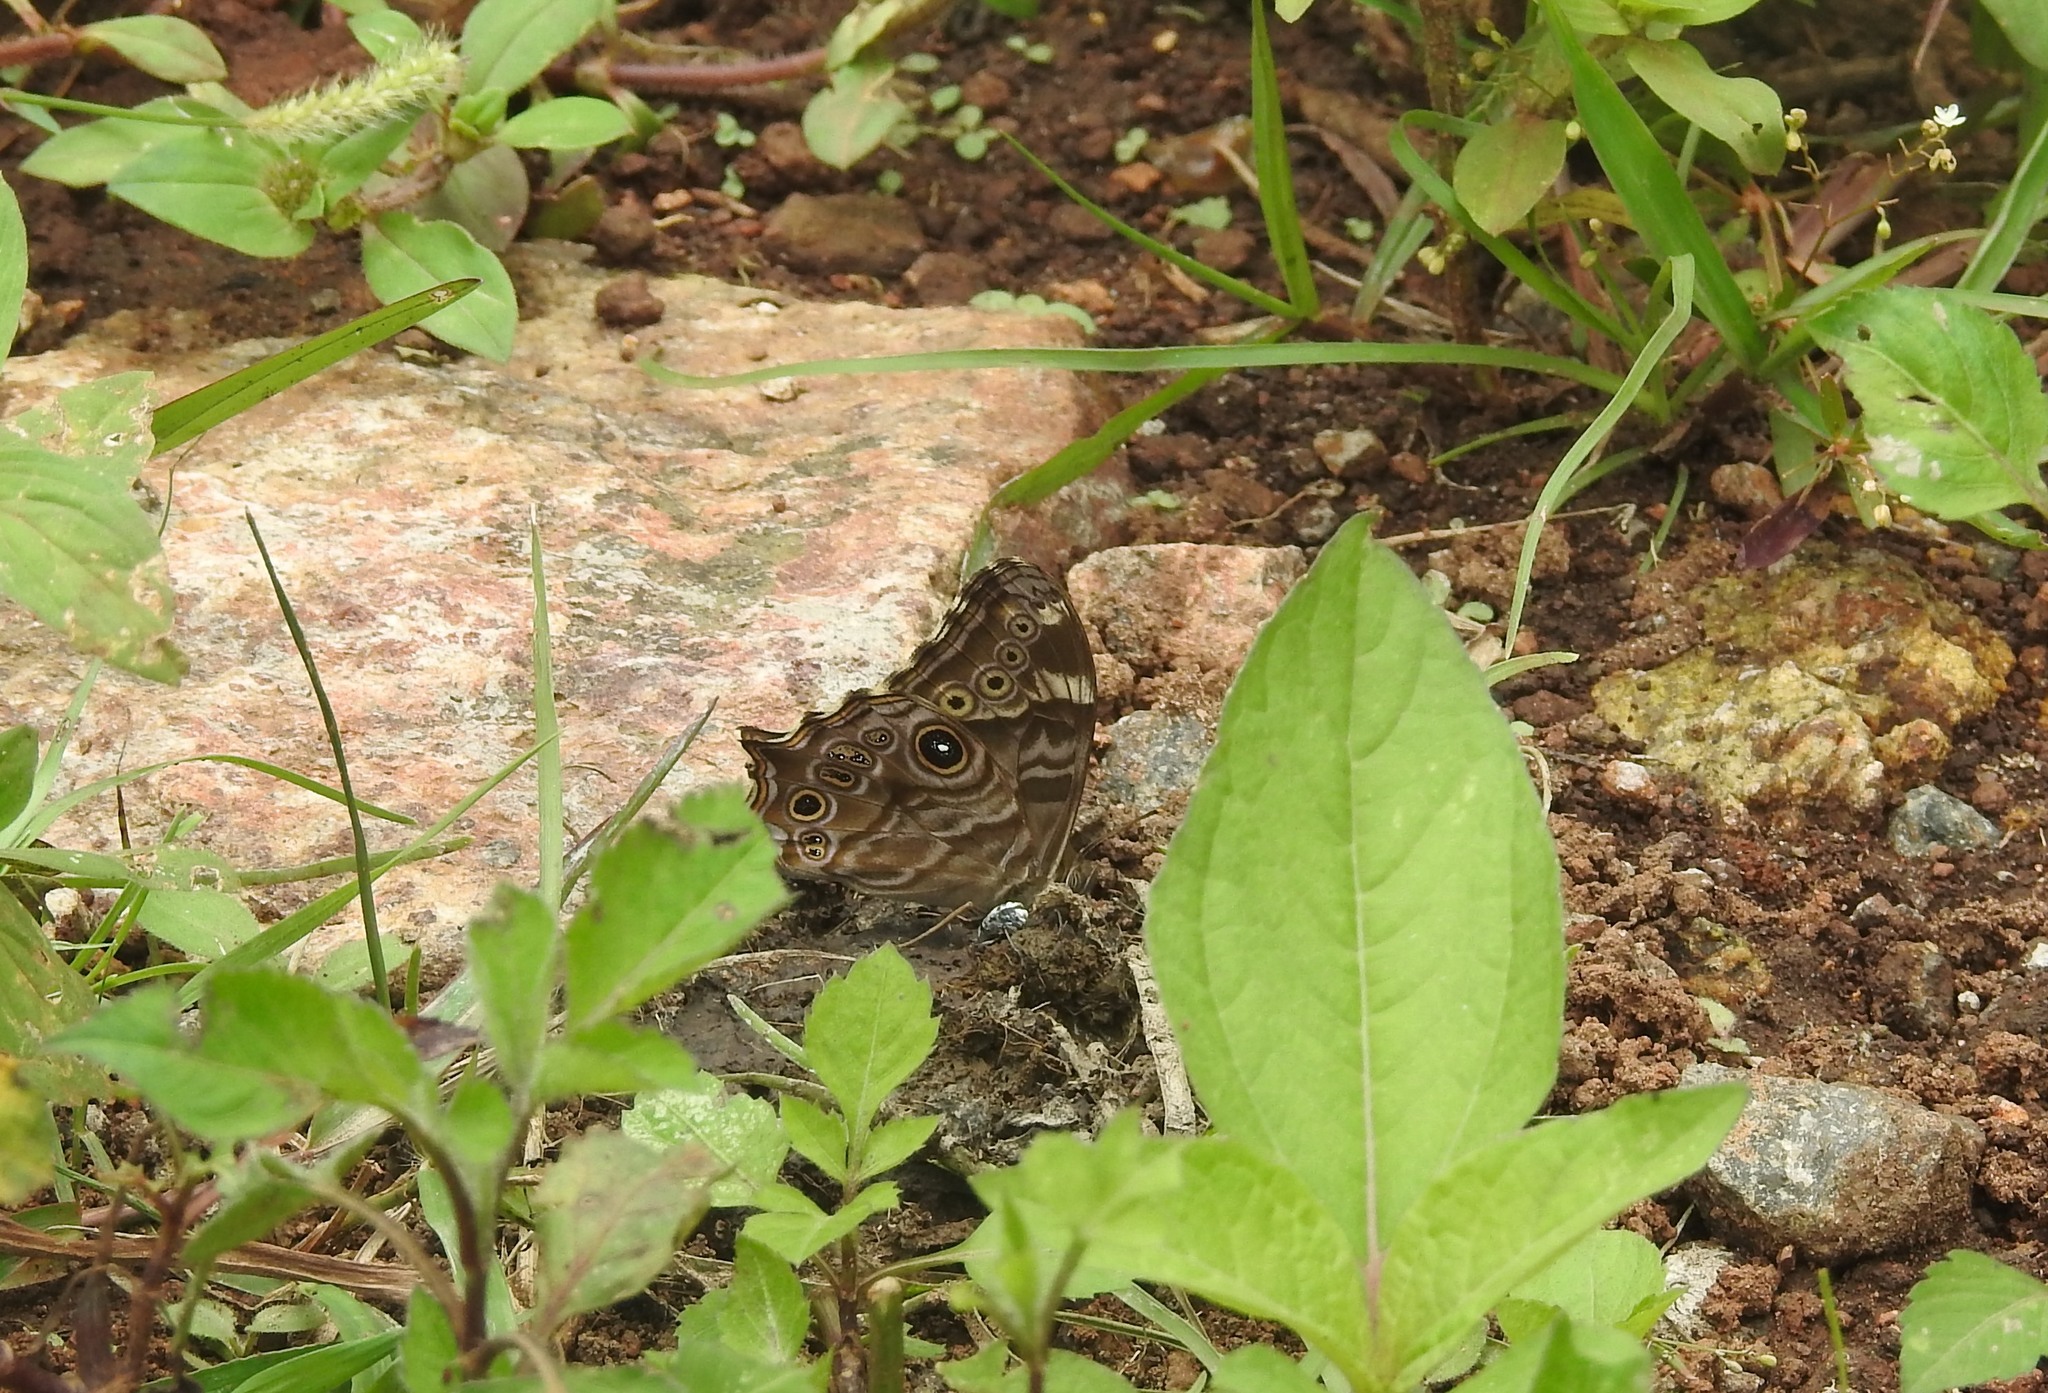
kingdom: Animalia
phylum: Arthropoda
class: Insecta
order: Lepidoptera
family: Nymphalidae
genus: Lethe
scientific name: Lethe rohria
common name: Common treebrown
